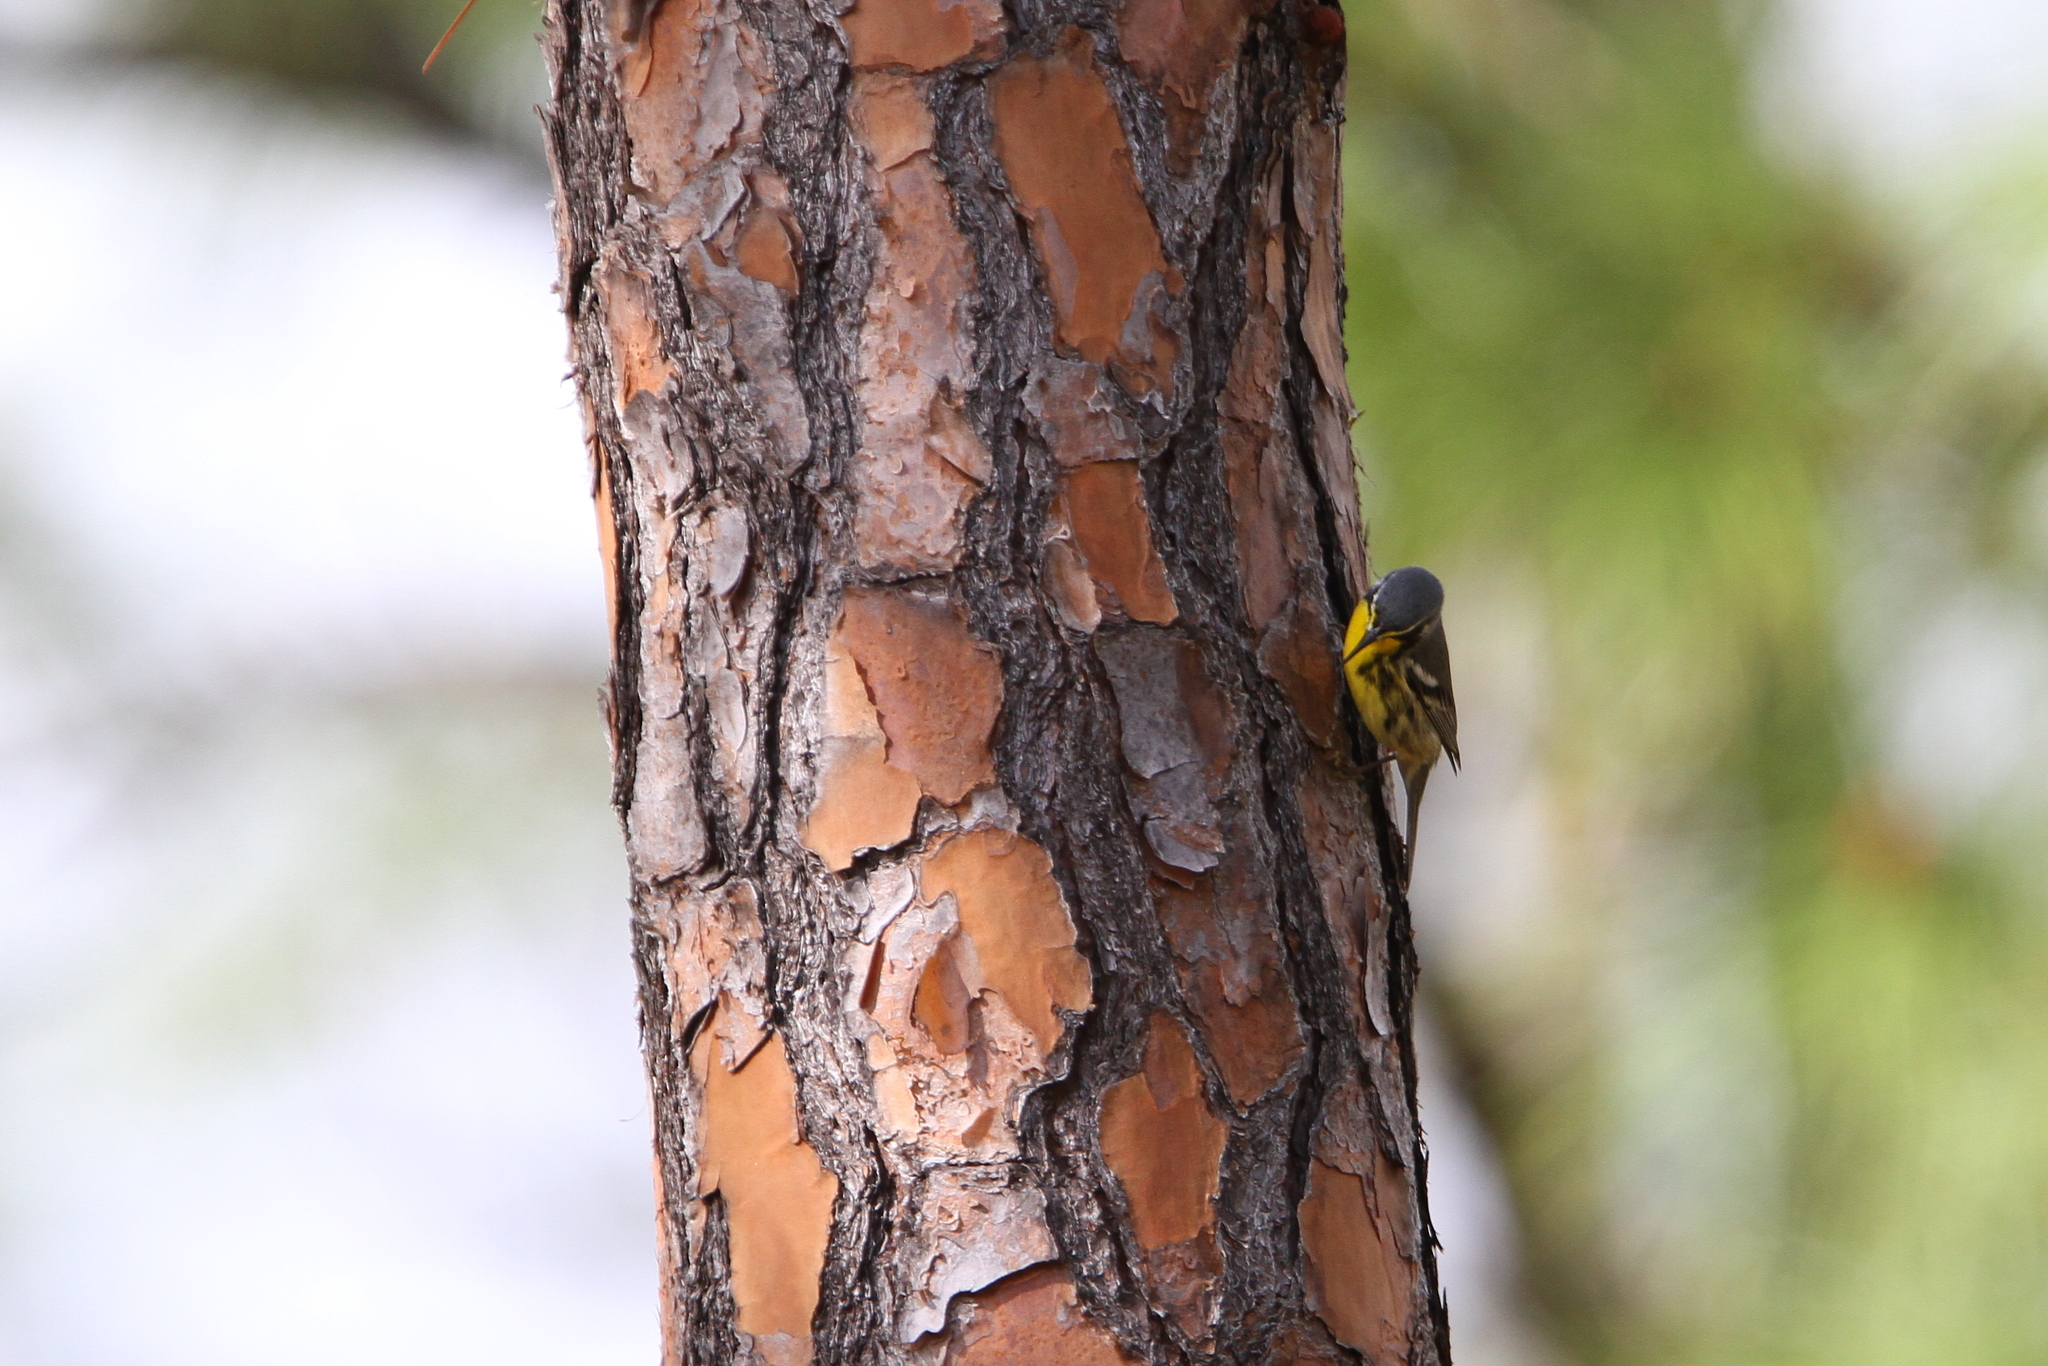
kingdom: Animalia
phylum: Chordata
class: Aves
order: Passeriformes
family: Parulidae
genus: Setophaga
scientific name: Setophaga flavescens
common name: Bahama warbler
